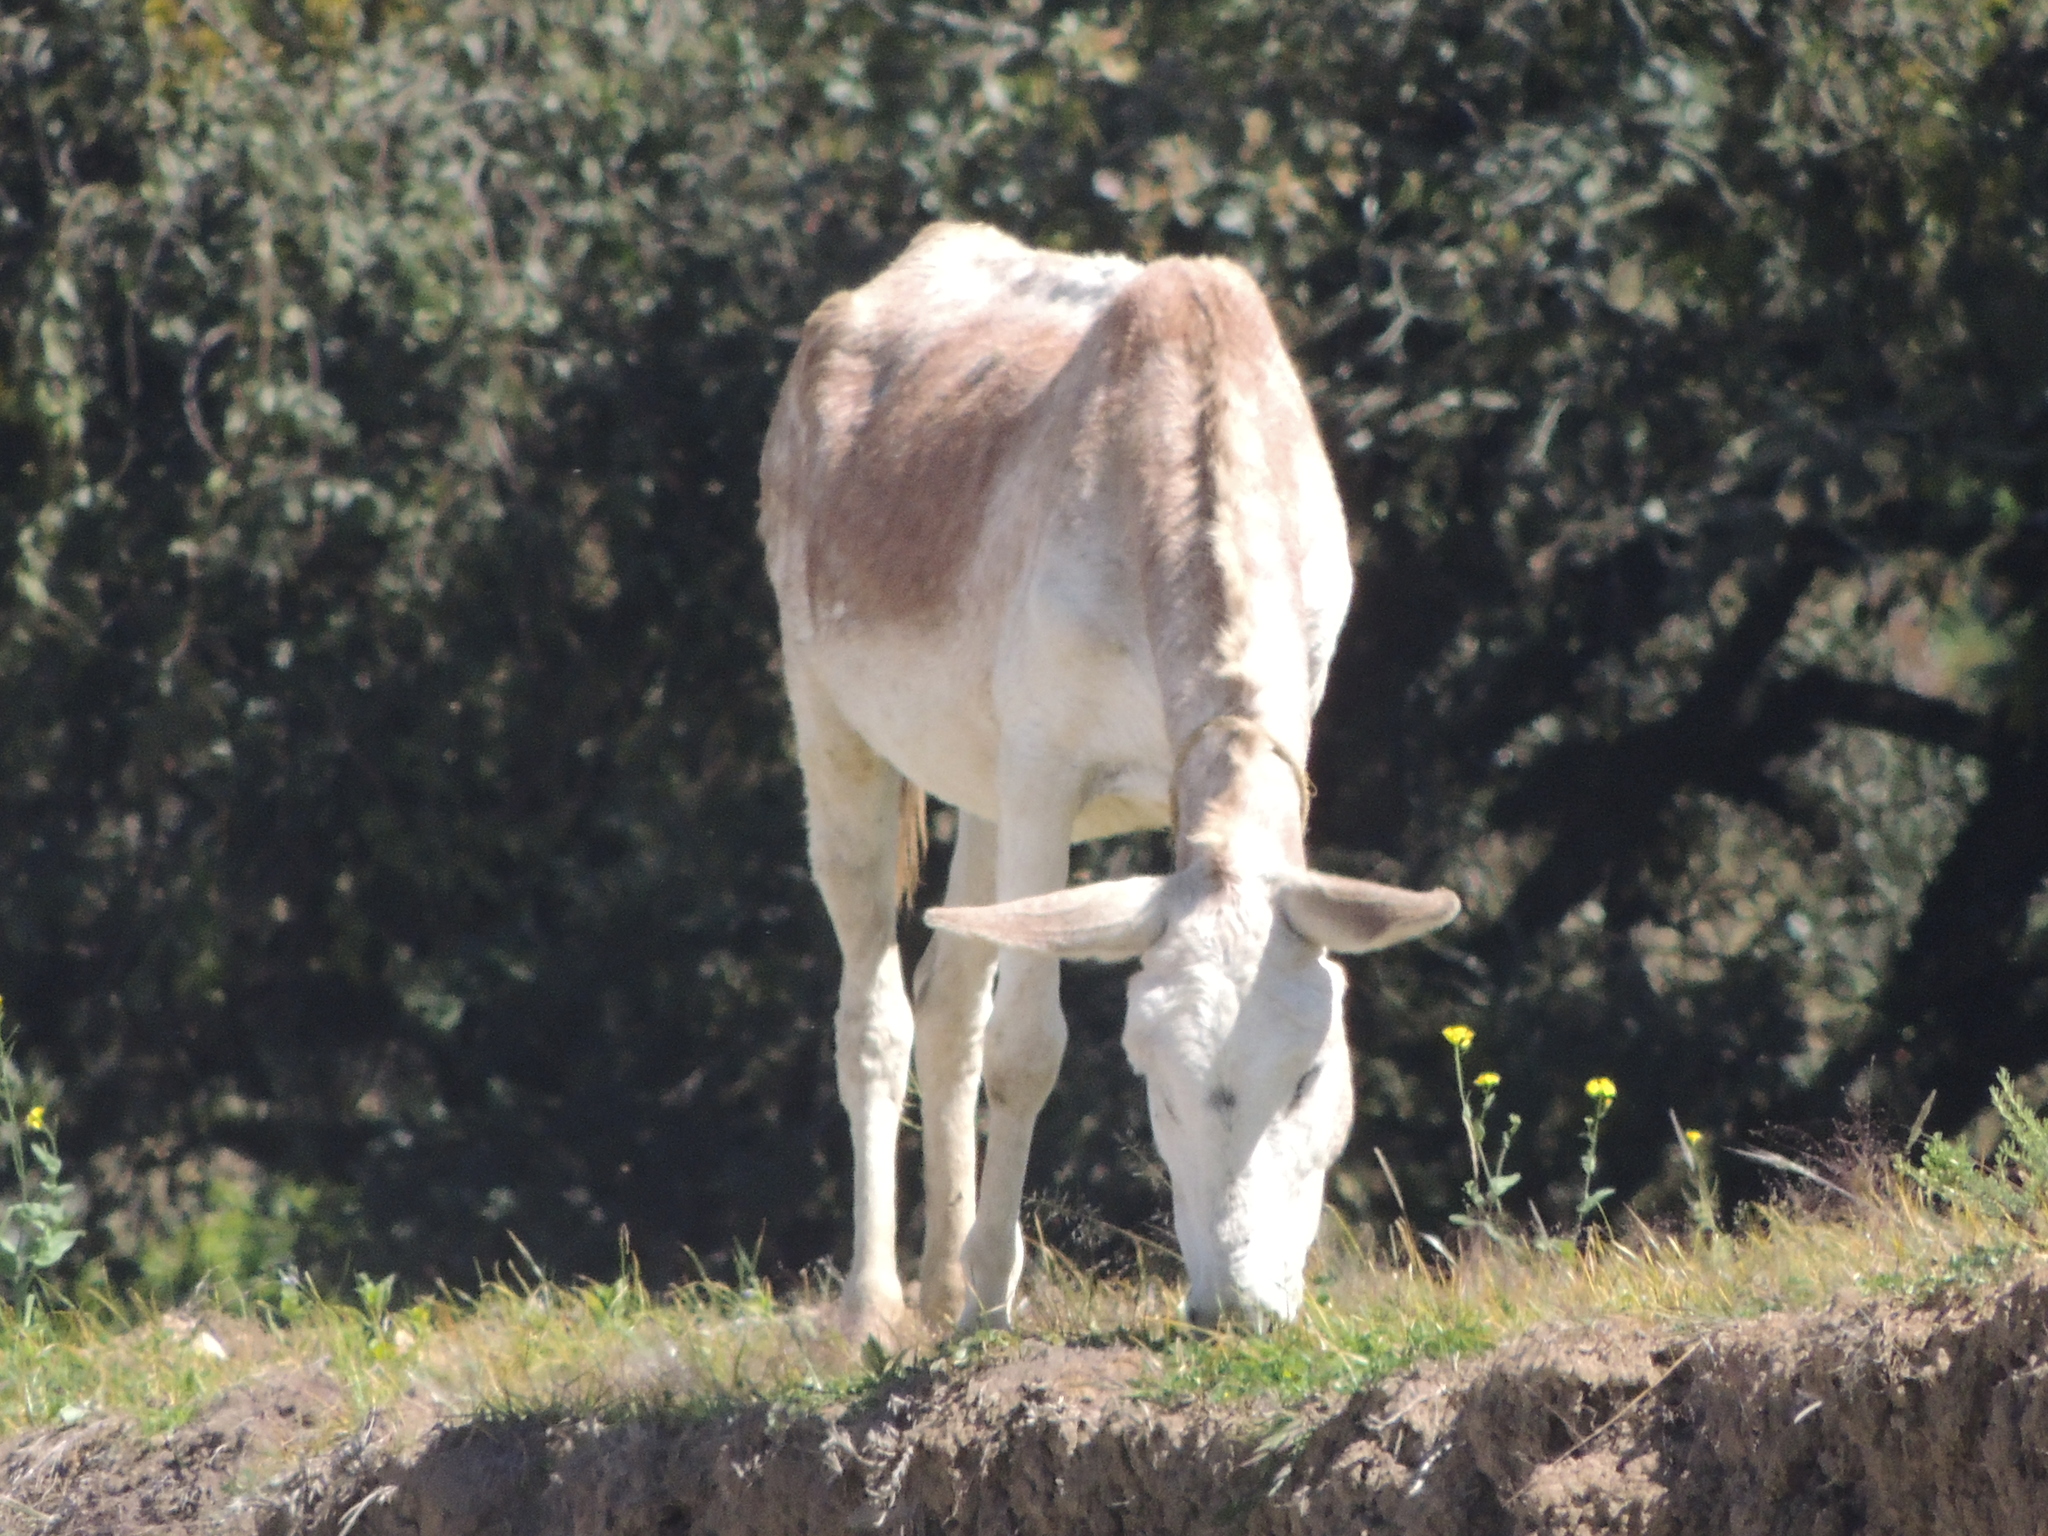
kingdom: Animalia
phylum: Chordata
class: Mammalia
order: Perissodactyla
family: Equidae
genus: Equus
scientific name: Equus asinus
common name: Ass
